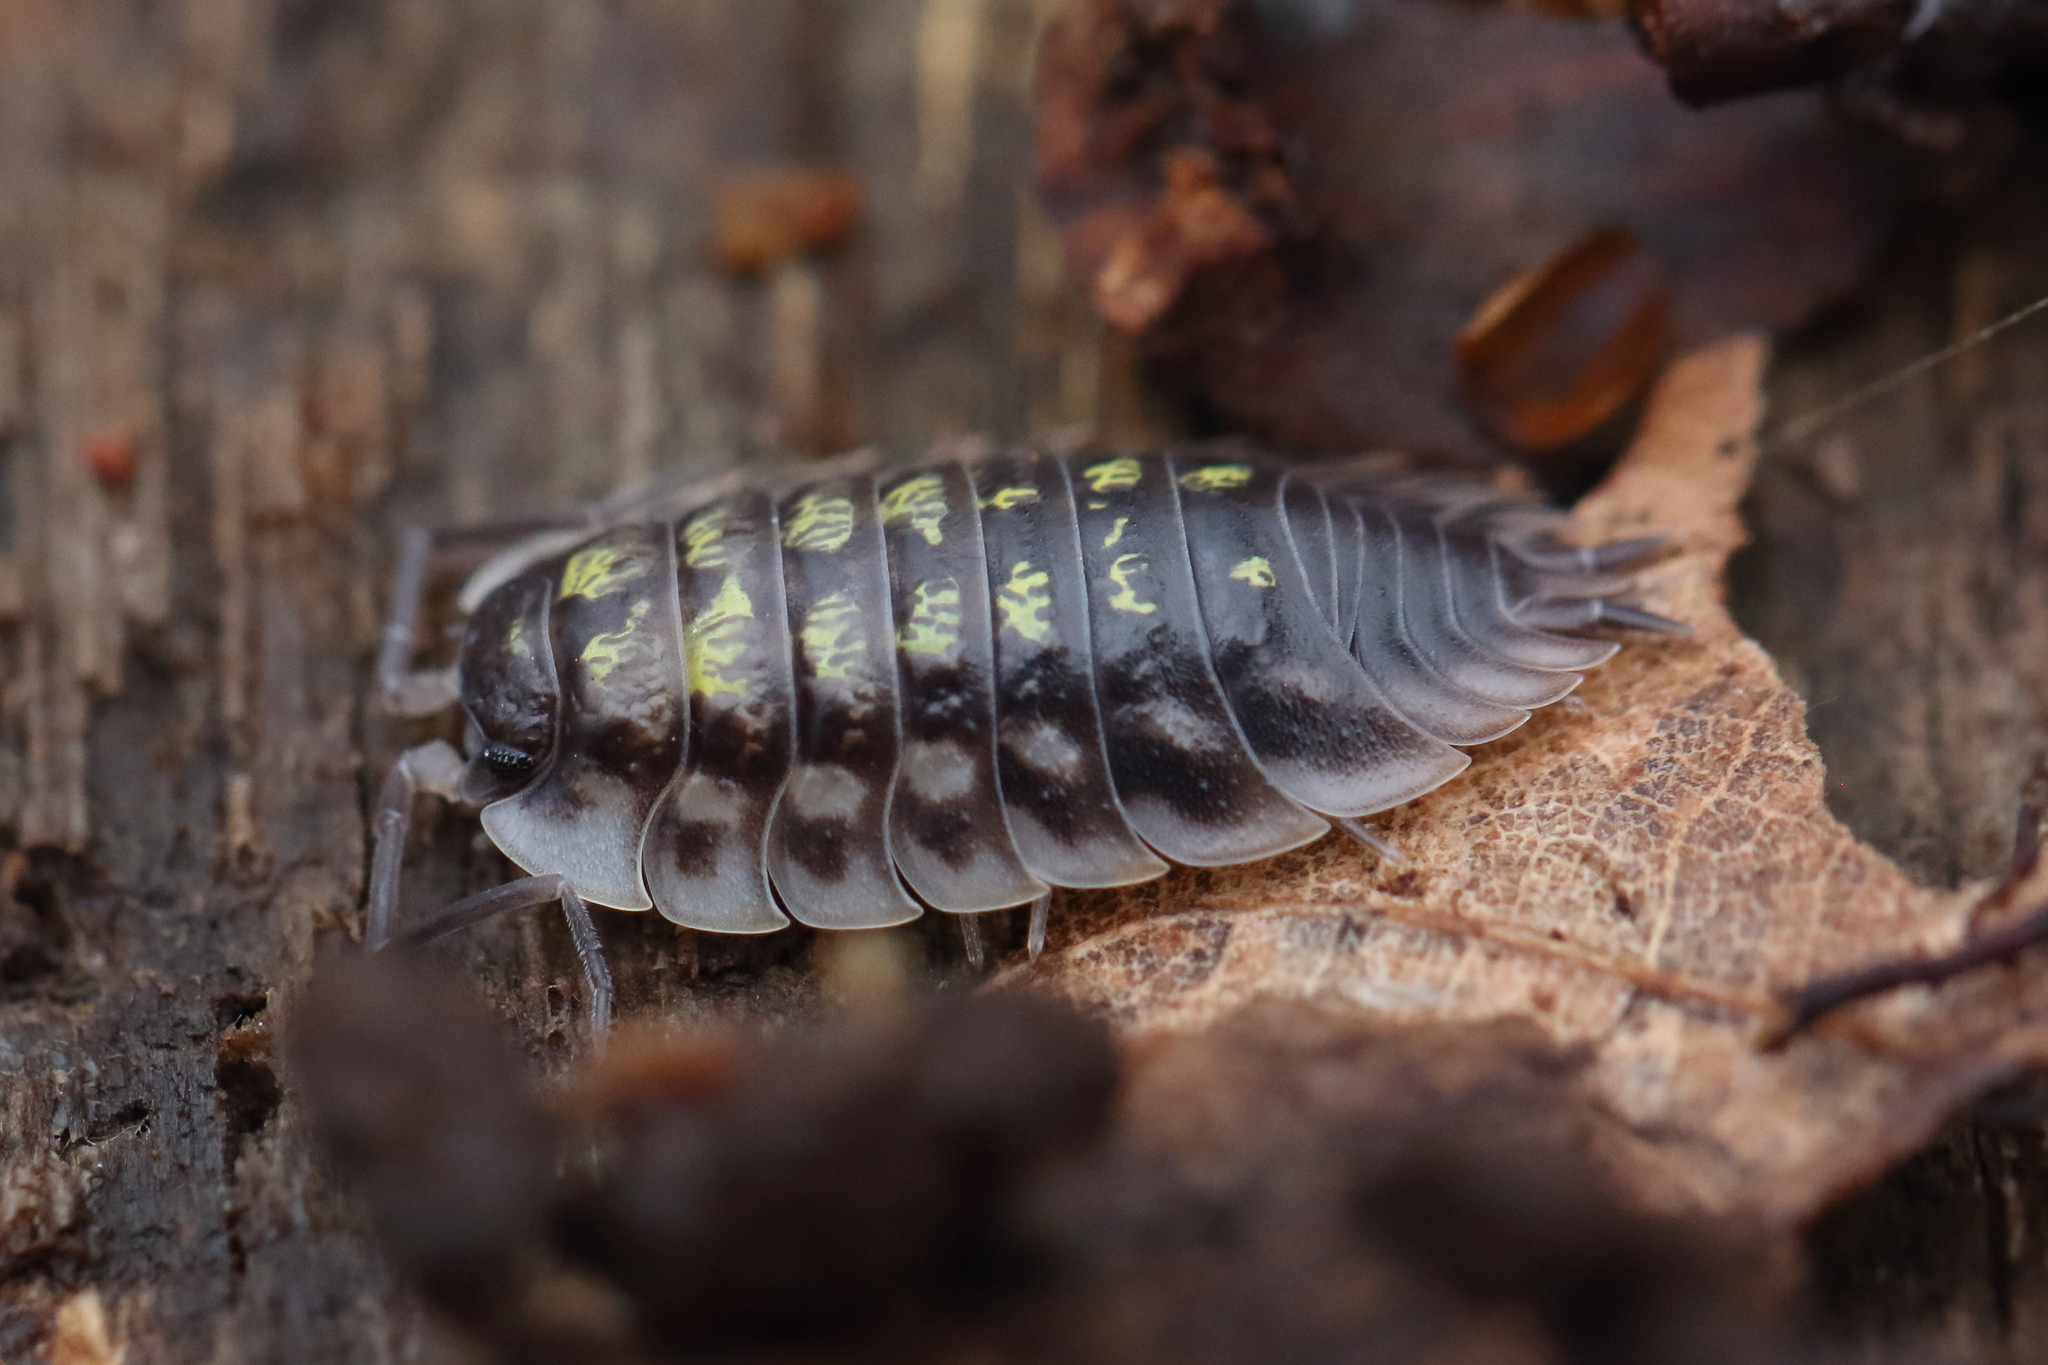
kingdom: Animalia
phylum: Arthropoda
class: Malacostraca
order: Isopoda
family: Oniscidae
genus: Oniscus
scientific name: Oniscus asellus
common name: Common shiny woodlouse
